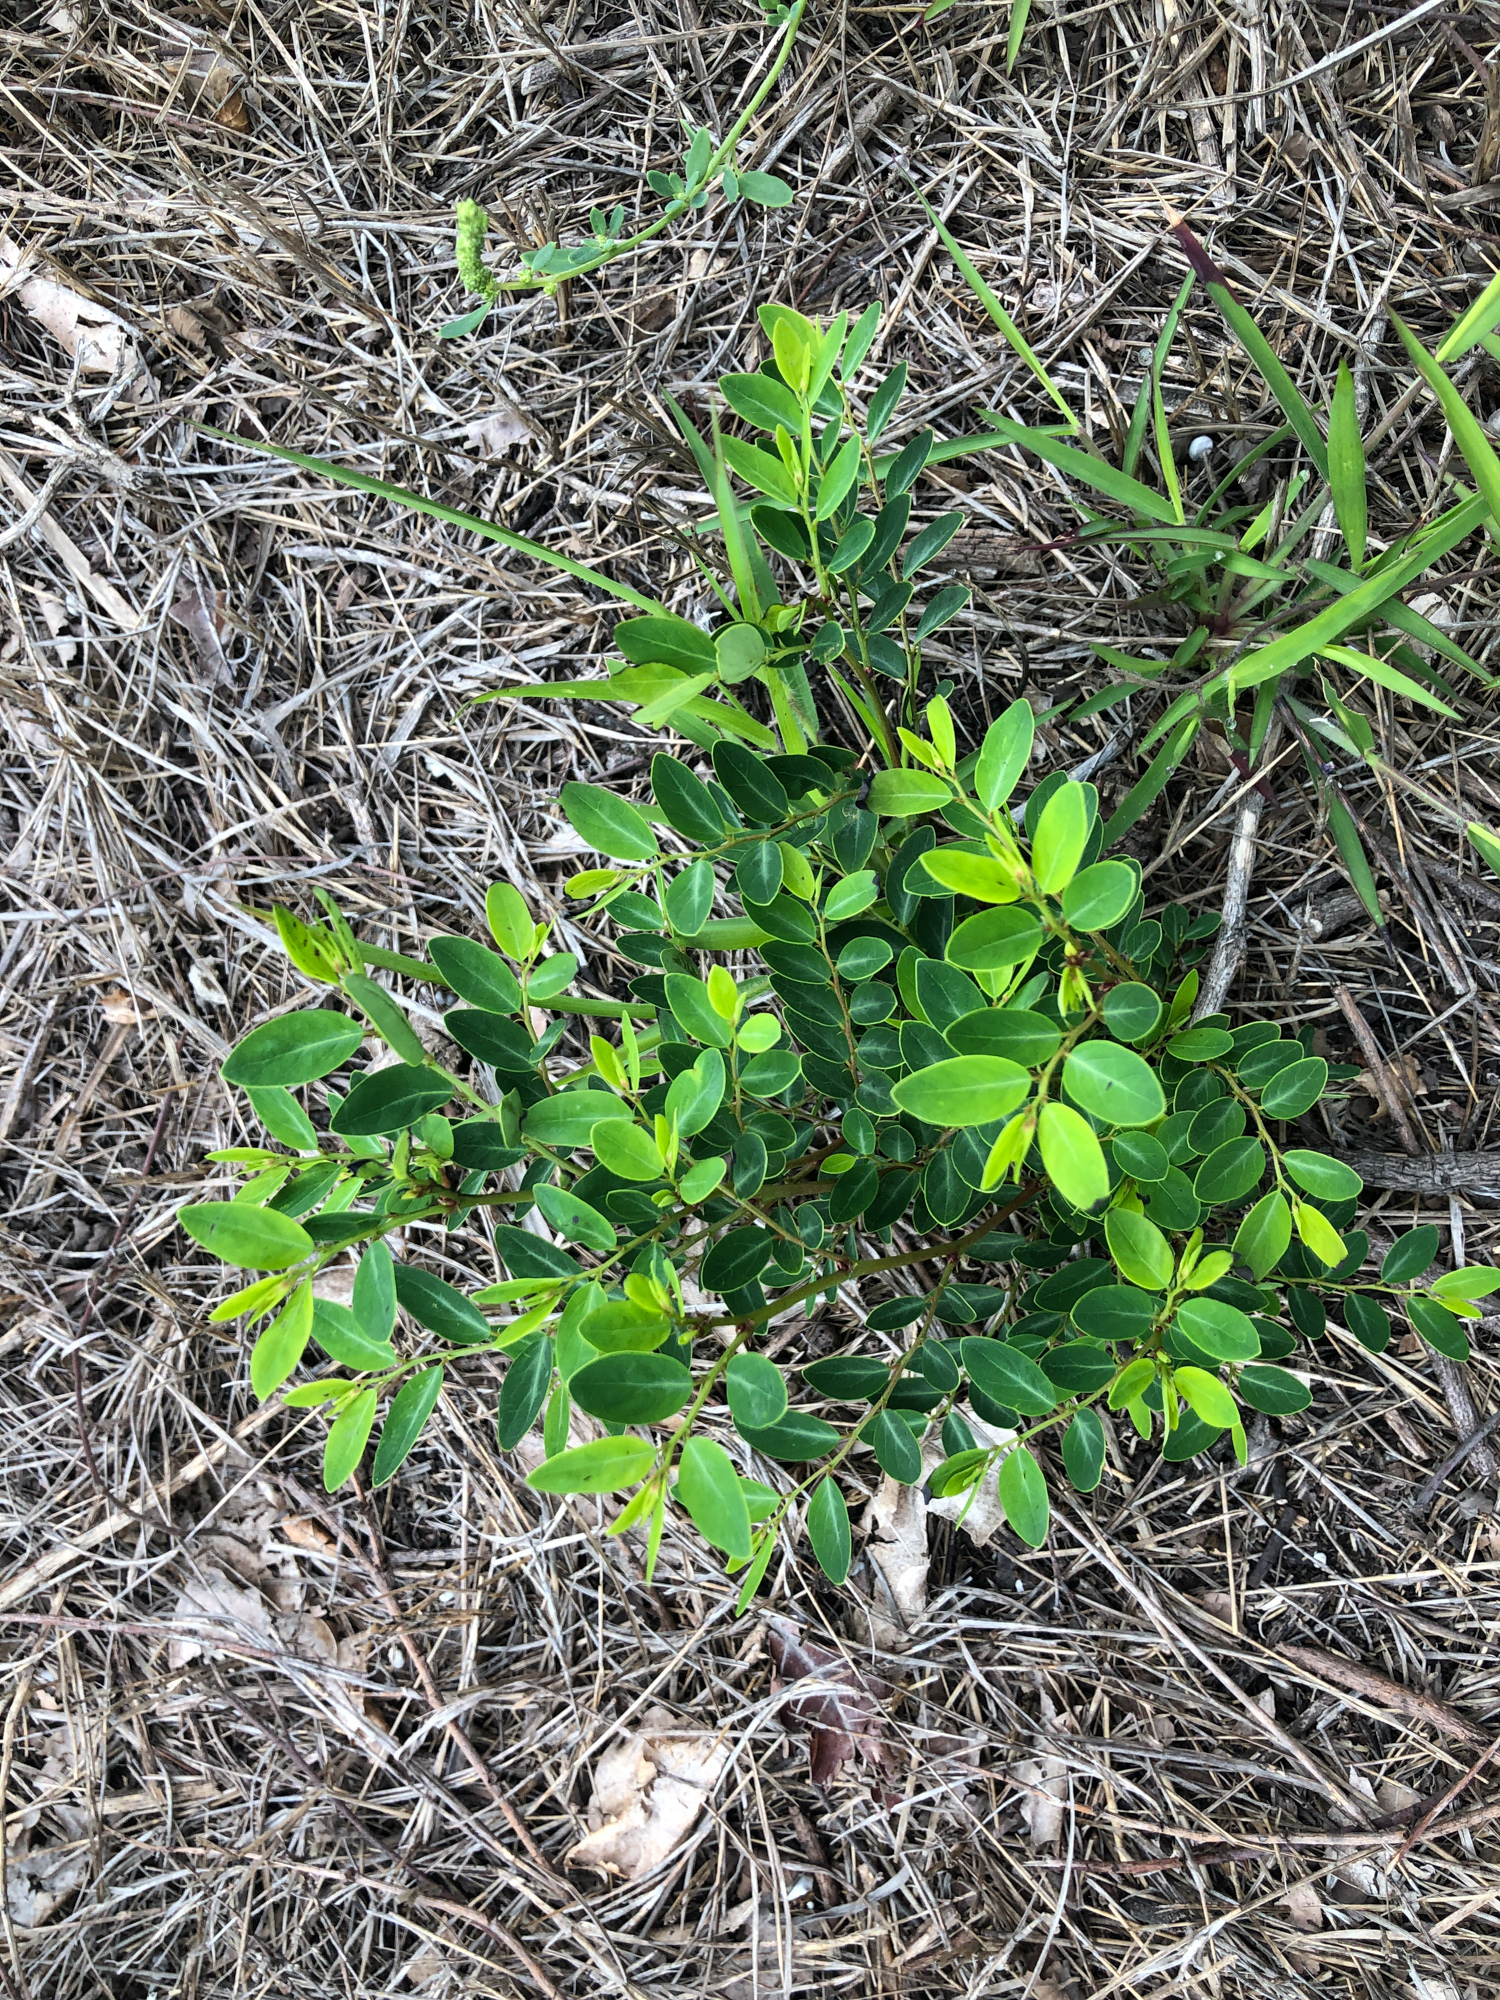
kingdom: Plantae
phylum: Tracheophyta
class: Magnoliopsida
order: Malpighiales
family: Phyllanthaceae
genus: Breynia
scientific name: Breynia vitis-idaea
